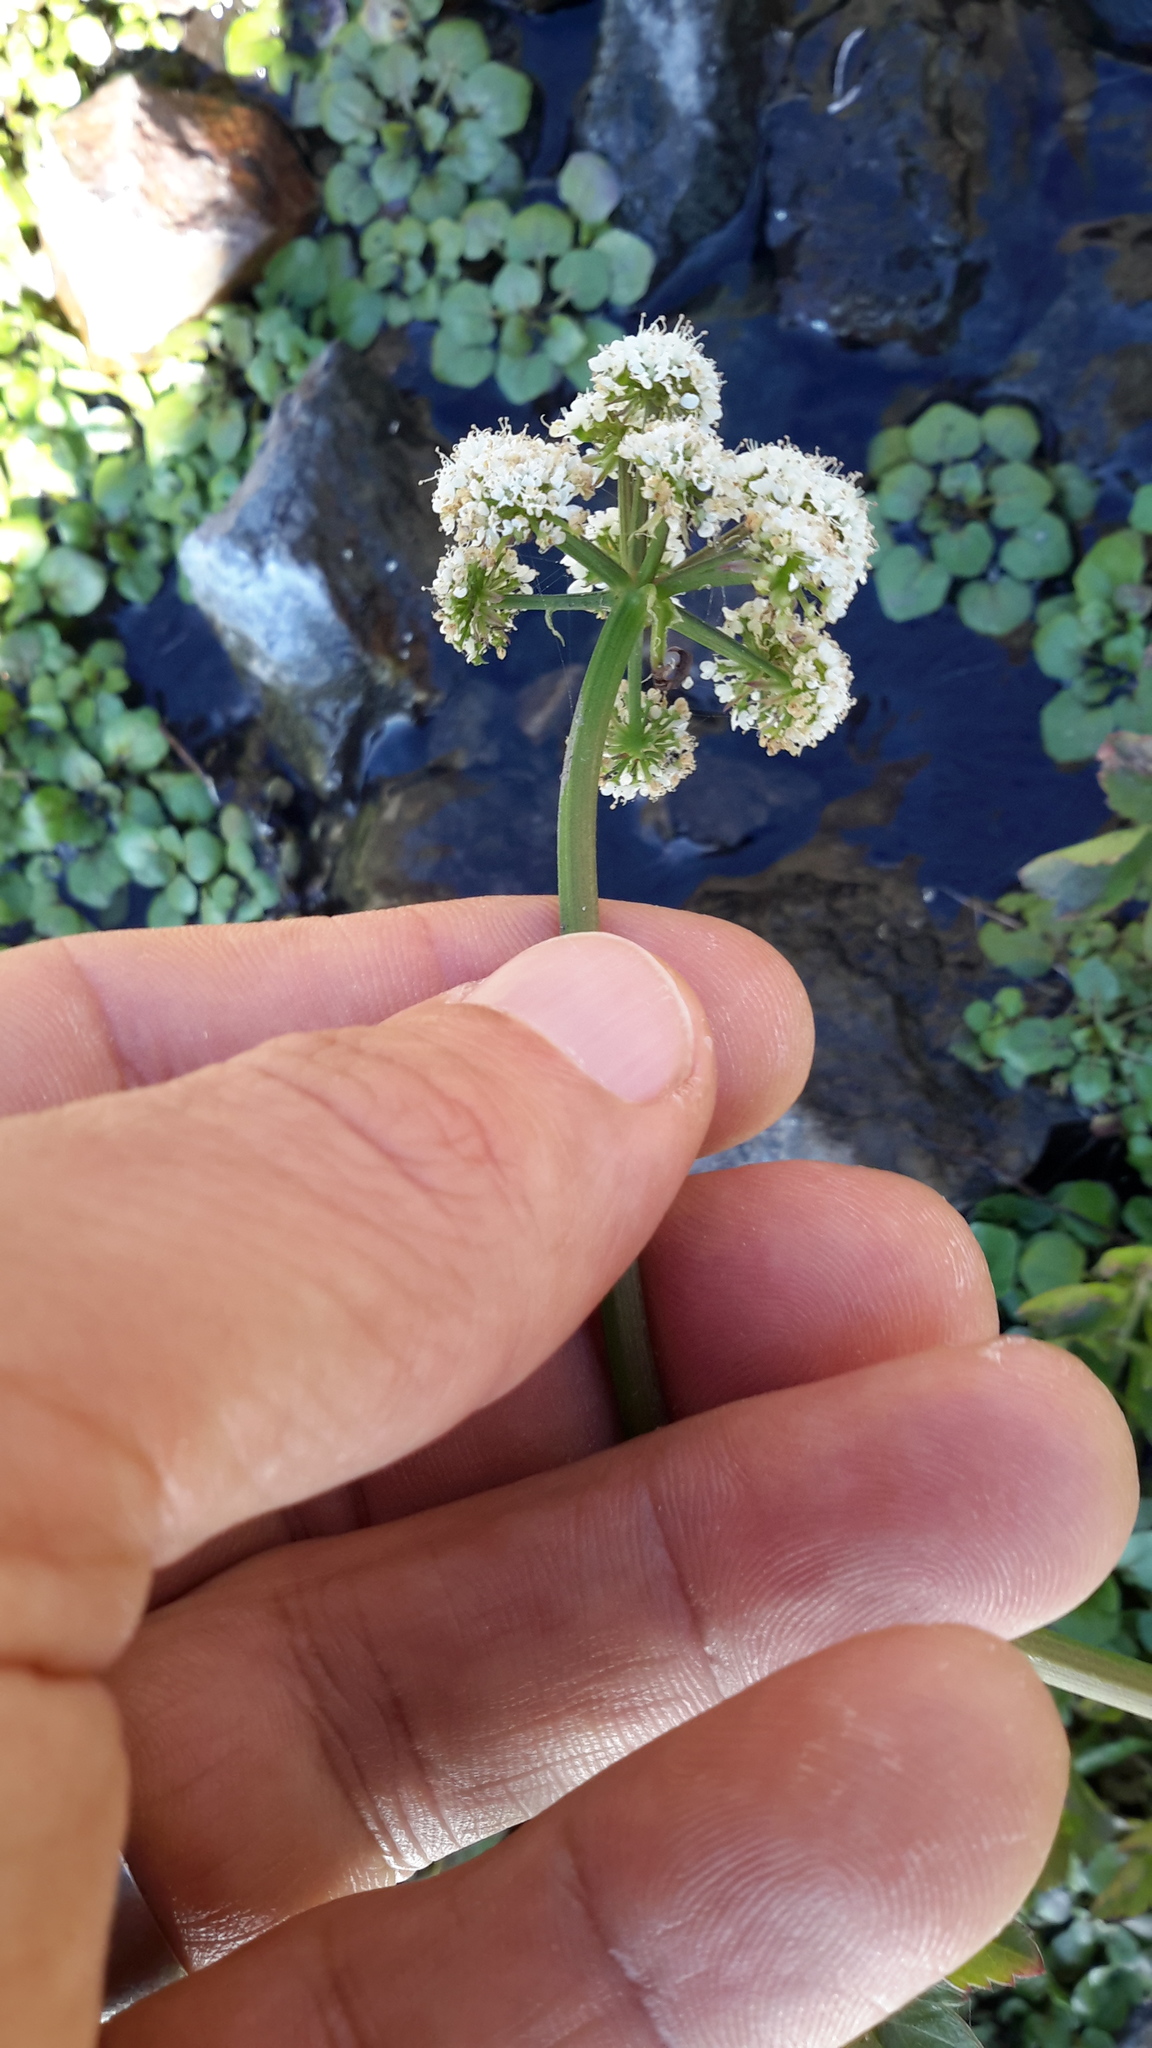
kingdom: Plantae
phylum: Tracheophyta
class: Magnoliopsida
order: Apiales
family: Apiaceae
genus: Oenanthe
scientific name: Oenanthe sarmentosa
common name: American water-parsley
